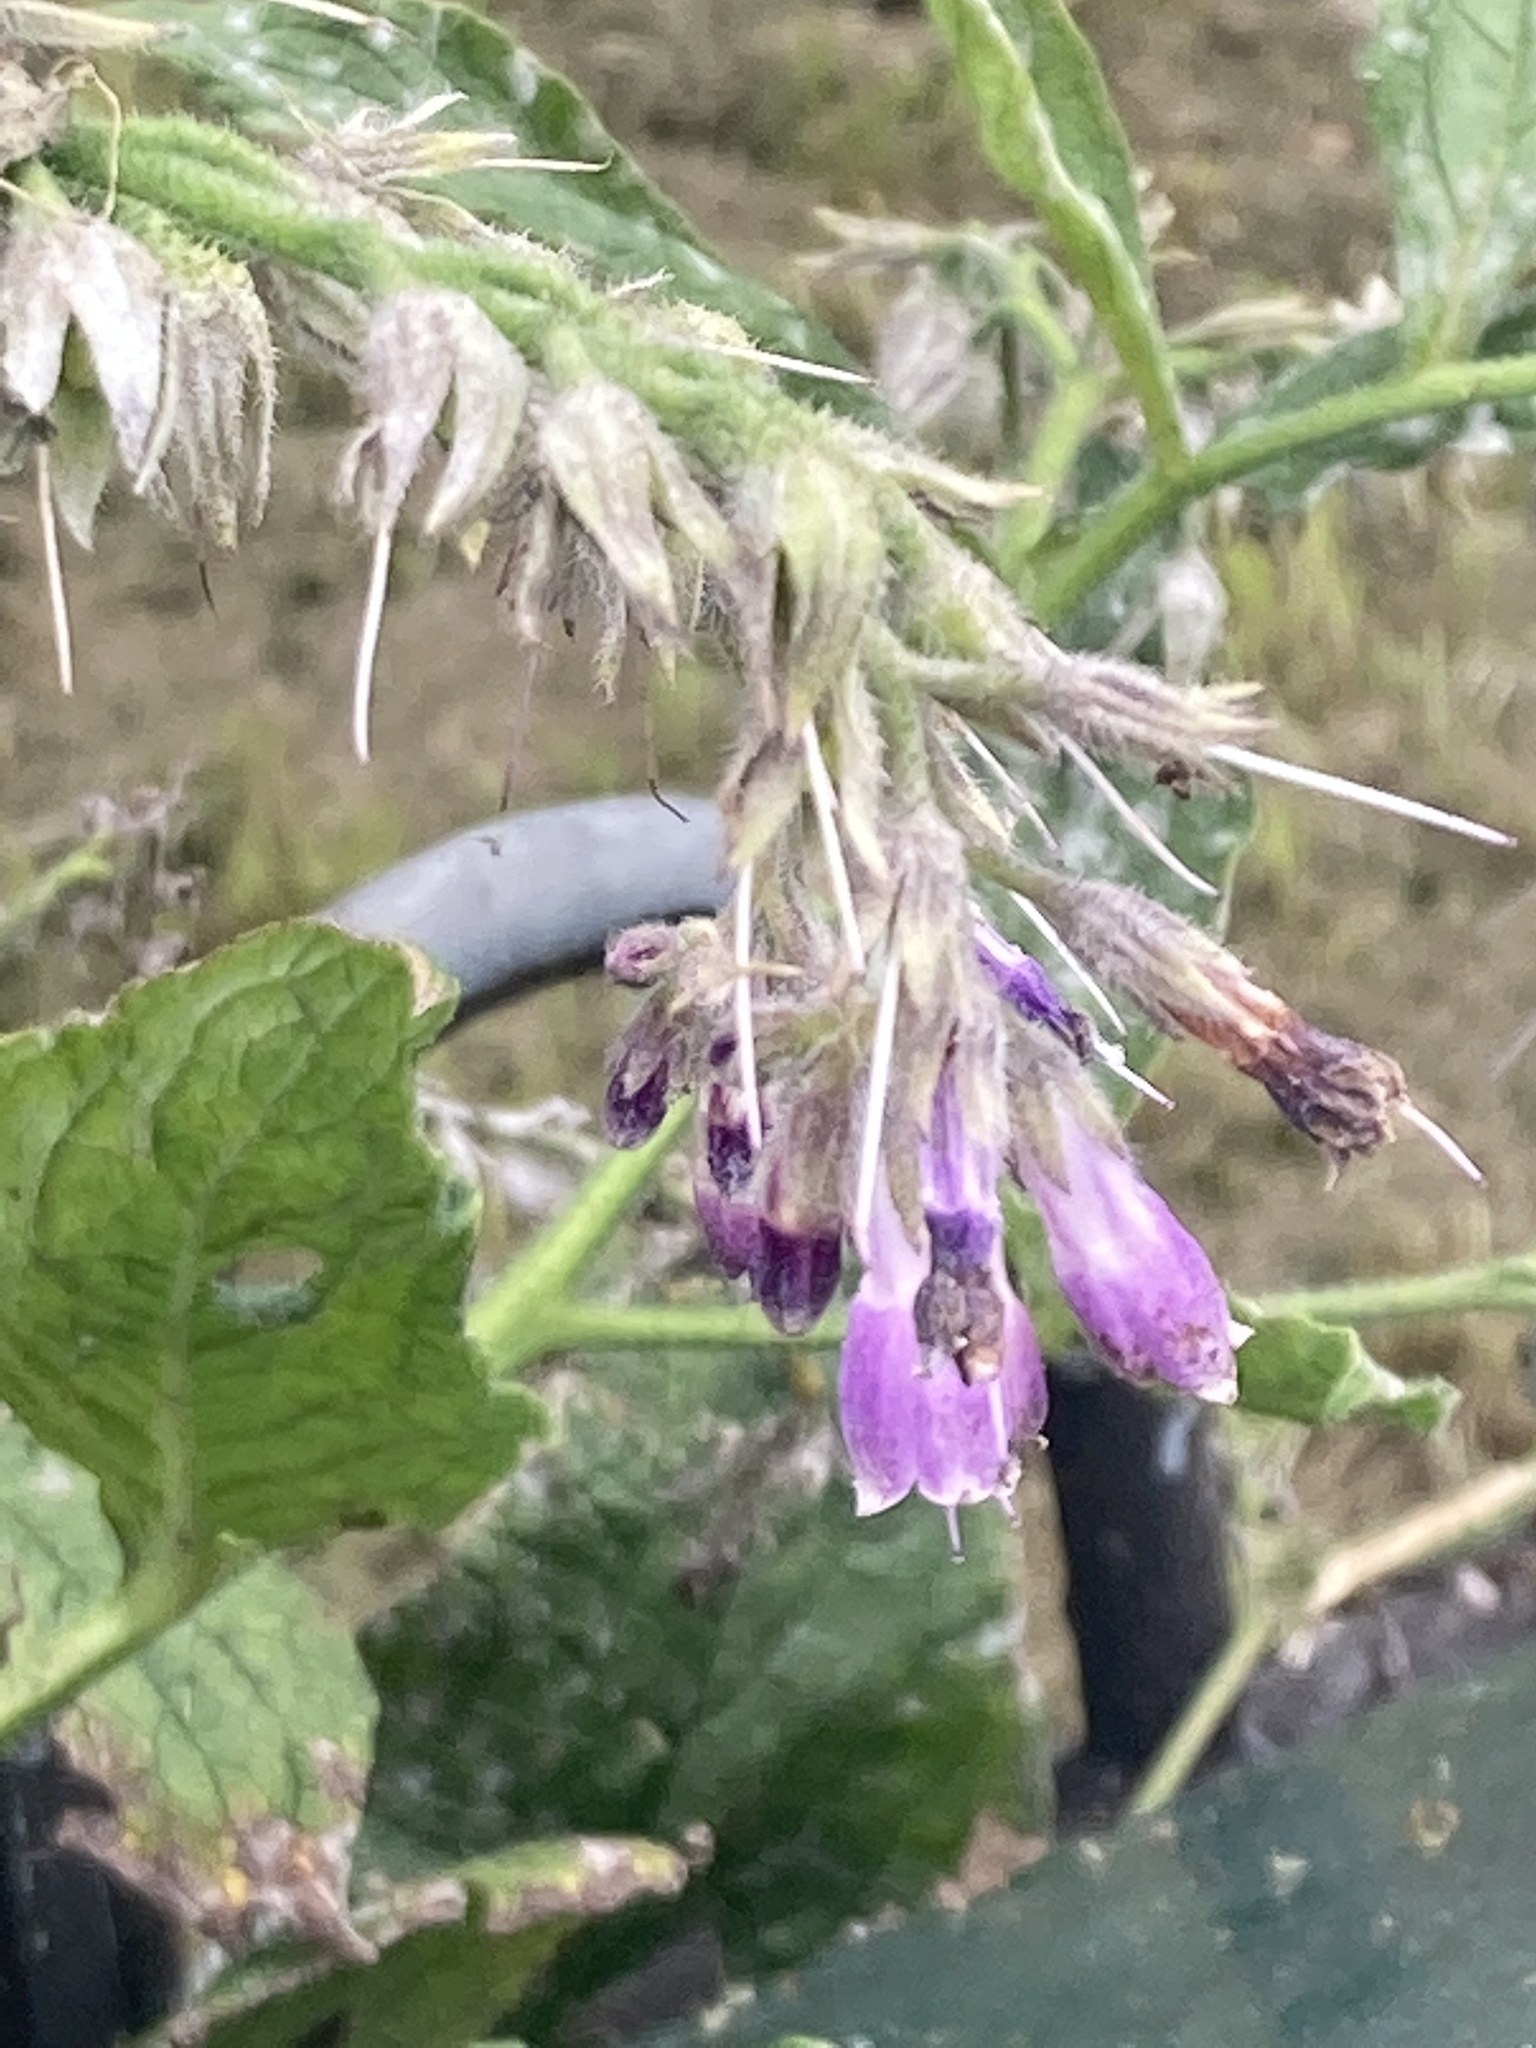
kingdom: Plantae
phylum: Tracheophyta
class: Magnoliopsida
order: Boraginales
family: Boraginaceae
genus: Symphytum
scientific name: Symphytum uplandicum
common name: Russian comfrey
